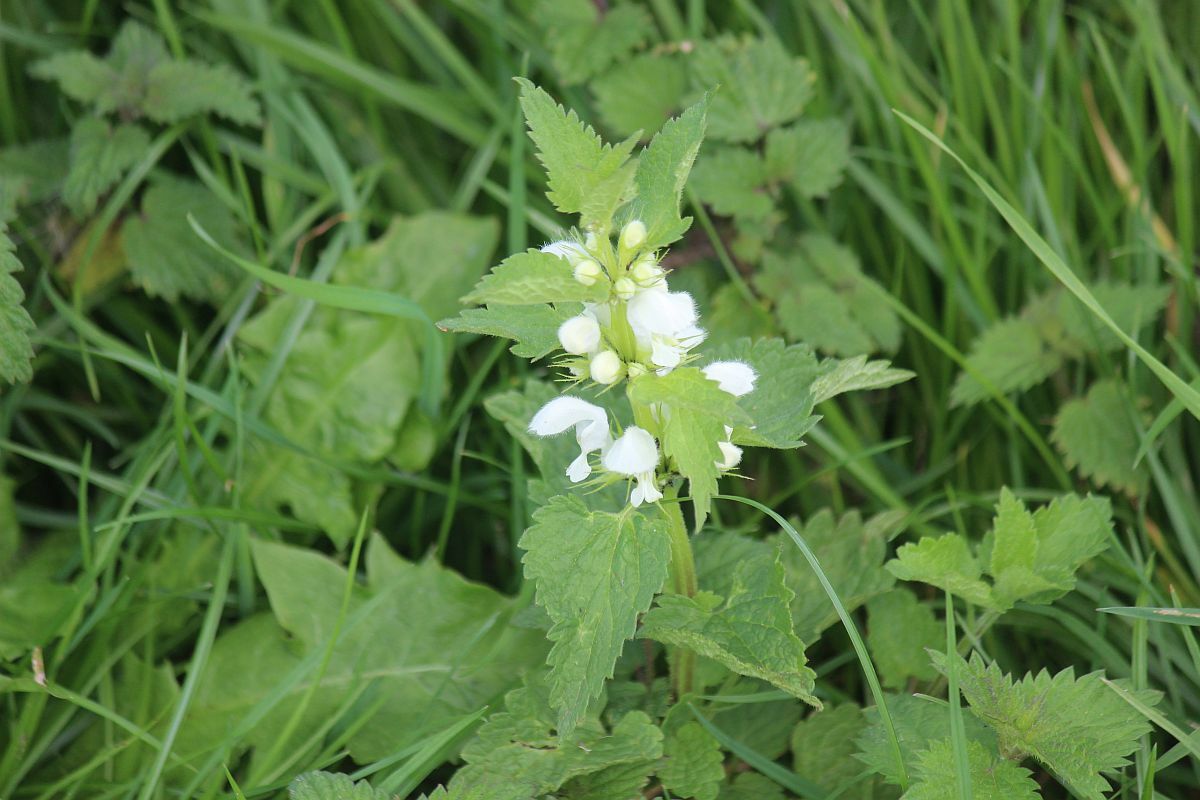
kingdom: Plantae
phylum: Tracheophyta
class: Magnoliopsida
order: Lamiales
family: Lamiaceae
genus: Lamium
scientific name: Lamium album
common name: White dead-nettle
